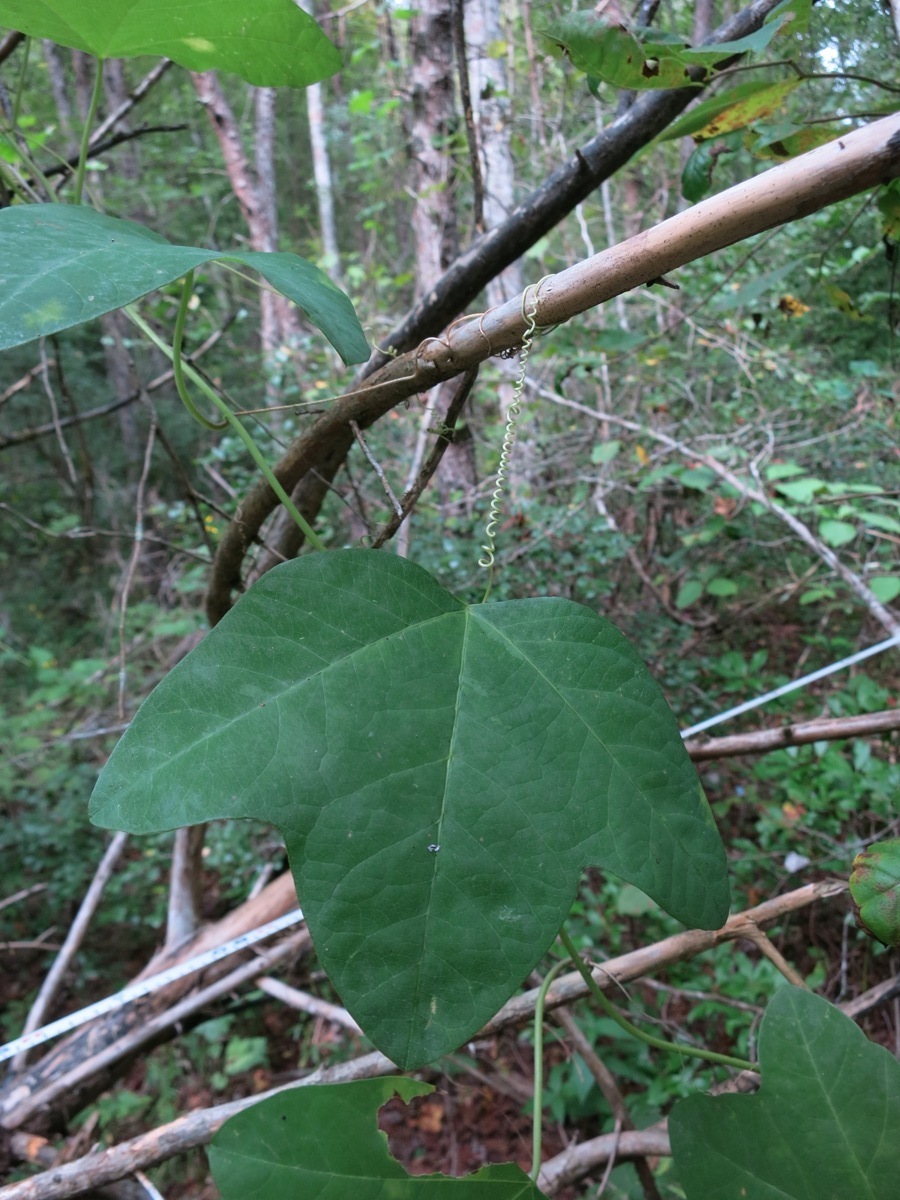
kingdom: Plantae
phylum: Tracheophyta
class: Magnoliopsida
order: Malpighiales
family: Passifloraceae
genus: Passiflora
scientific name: Passiflora lutea
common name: Yellow passionflower
